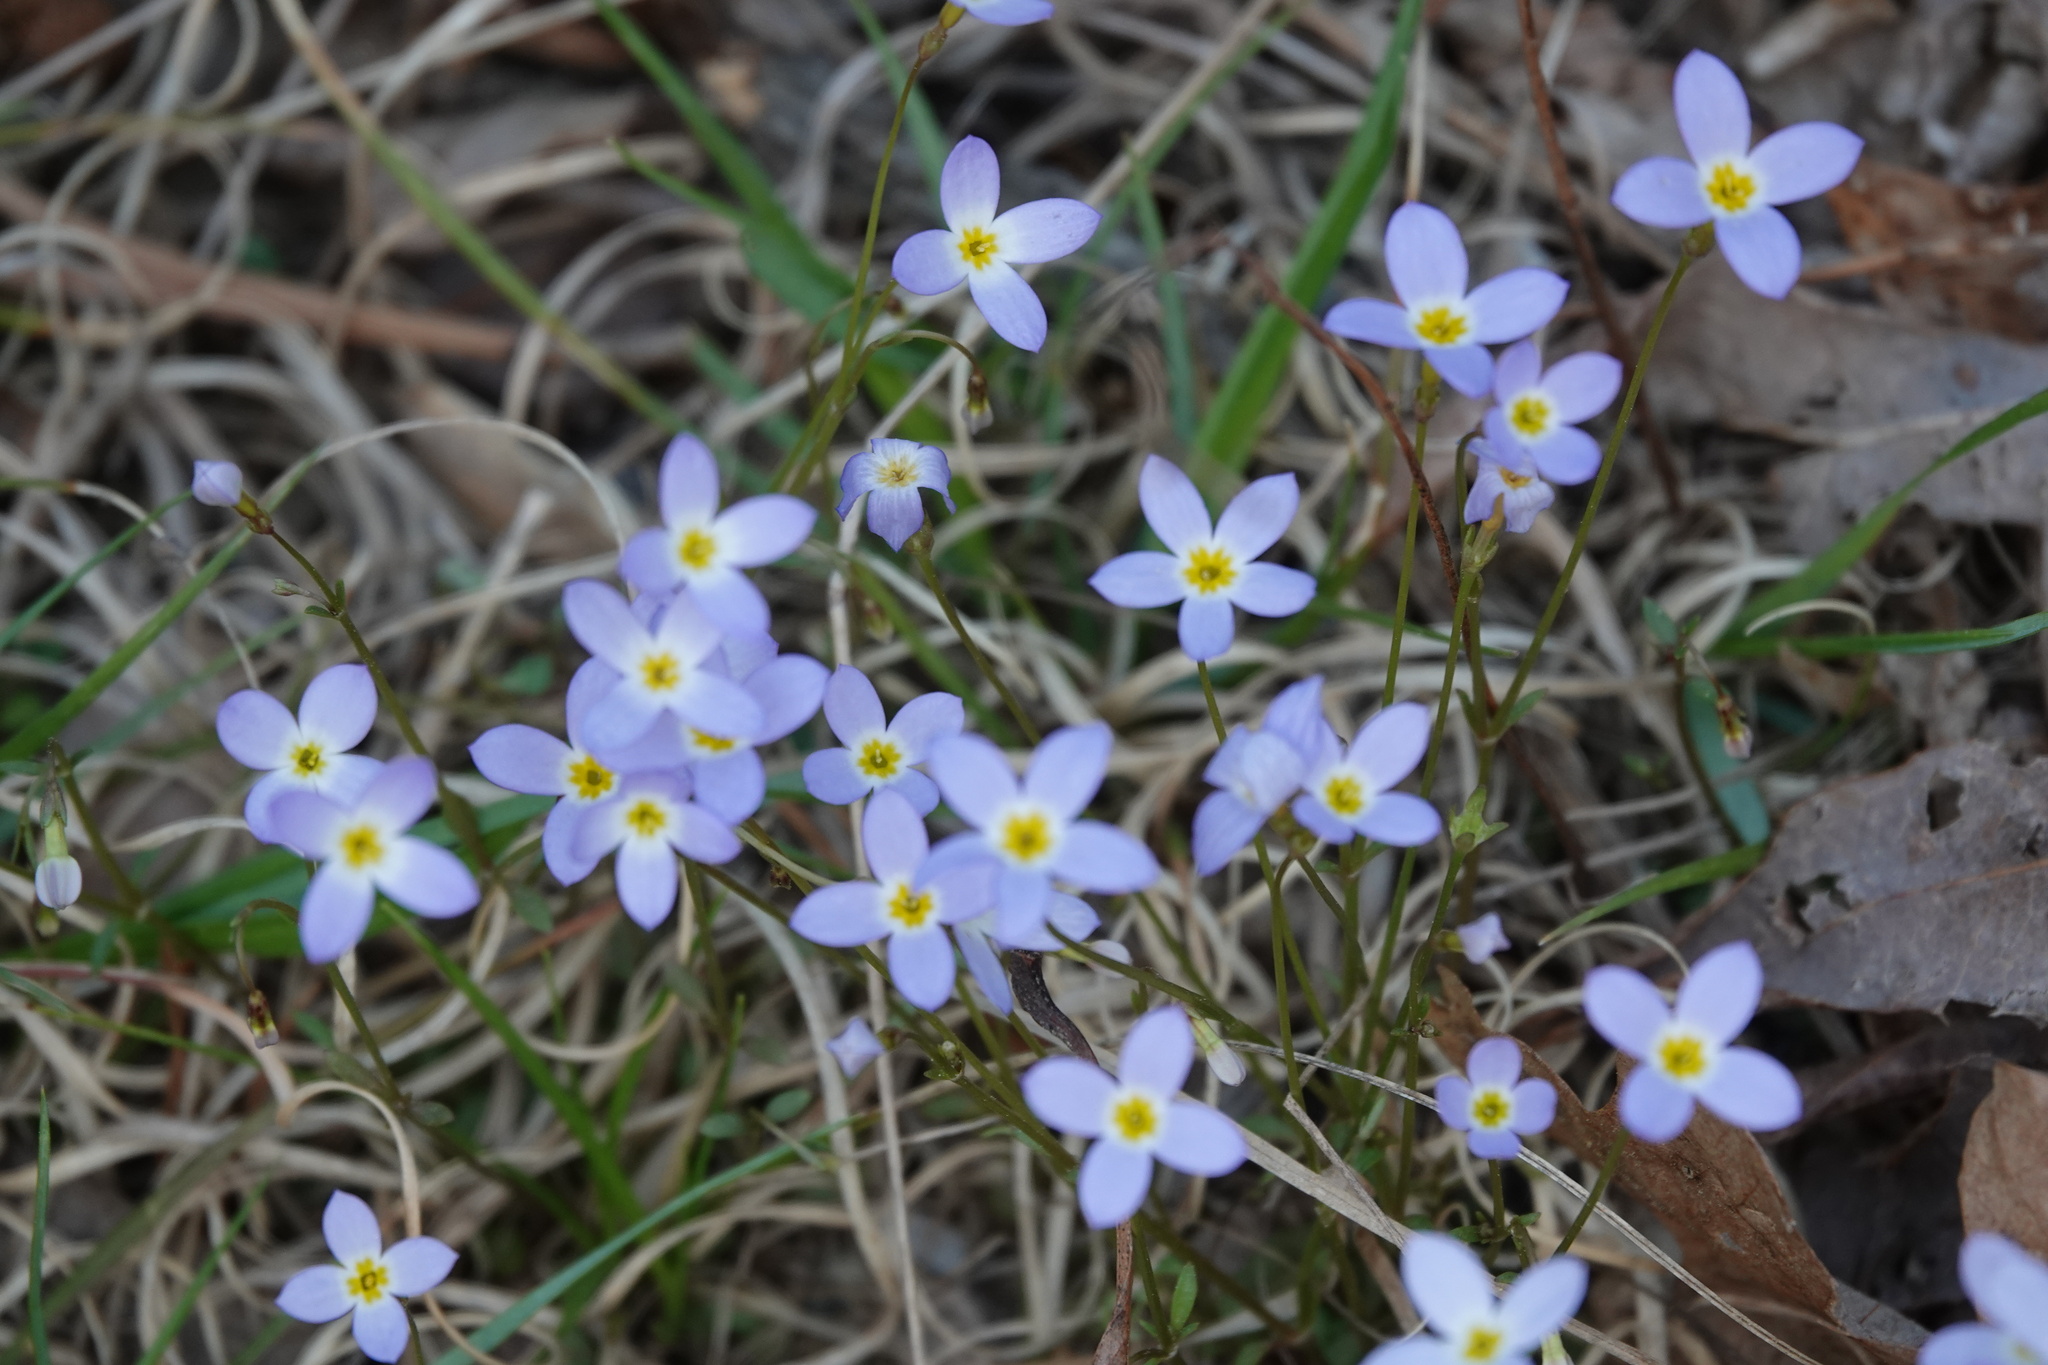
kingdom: Plantae
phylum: Tracheophyta
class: Magnoliopsida
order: Gentianales
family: Rubiaceae
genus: Houstonia
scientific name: Houstonia caerulea
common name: Bluets
